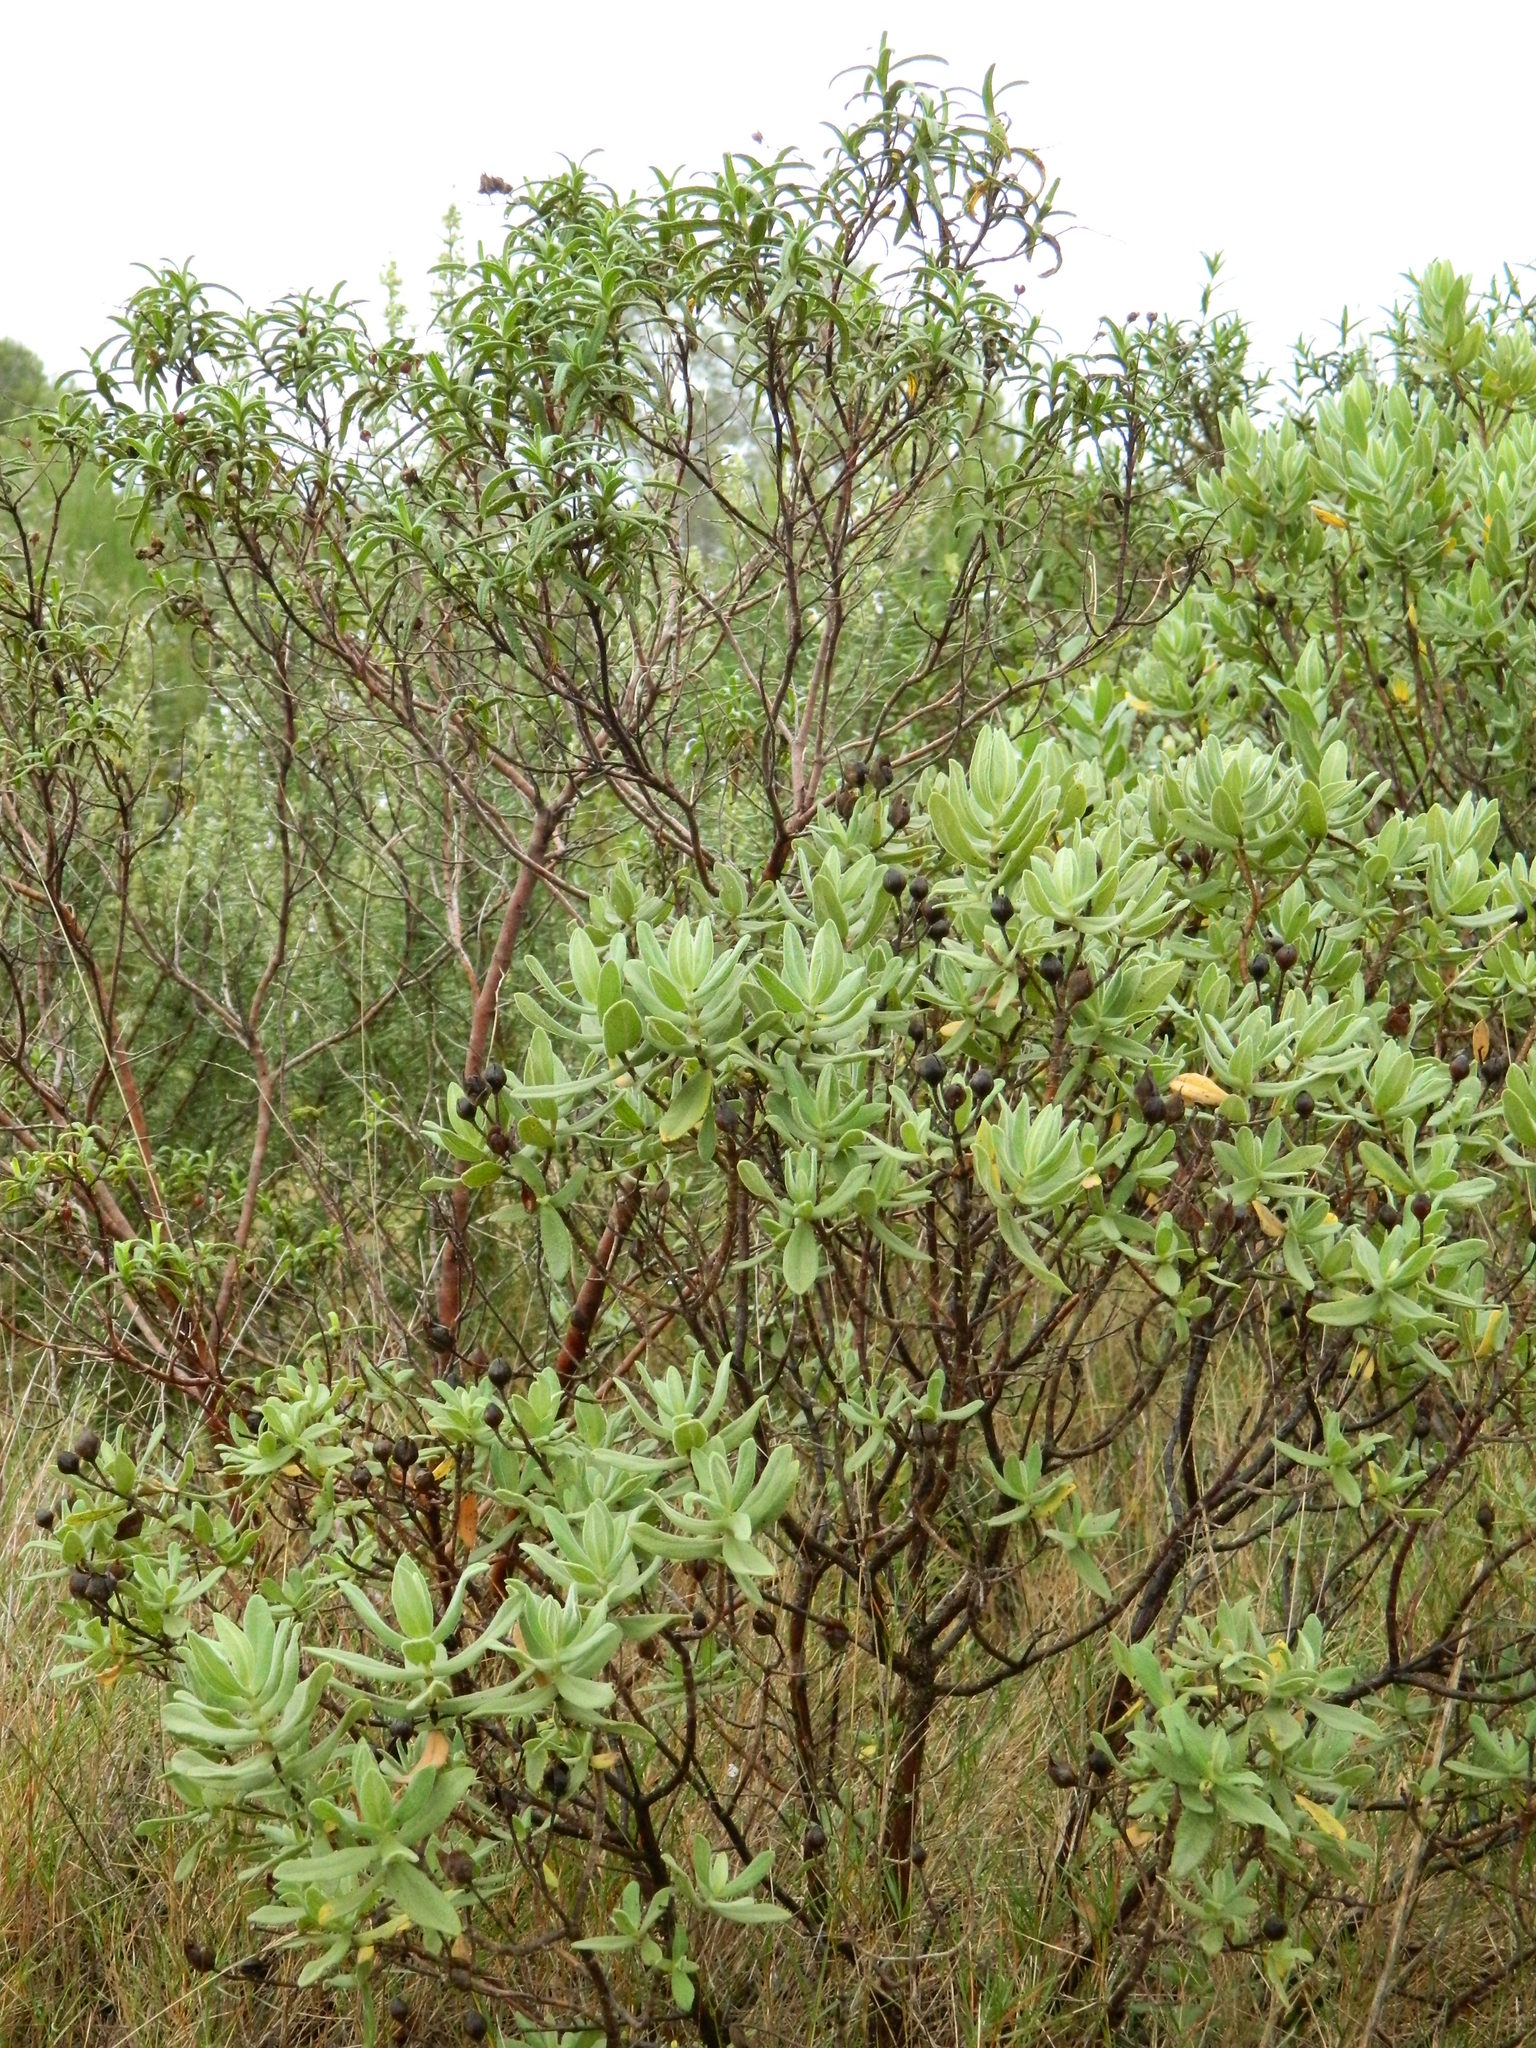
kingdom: Plantae
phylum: Tracheophyta
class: Magnoliopsida
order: Malvales
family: Cistaceae
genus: Cistus
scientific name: Cistus albidus
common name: White-leaf rock-rose
